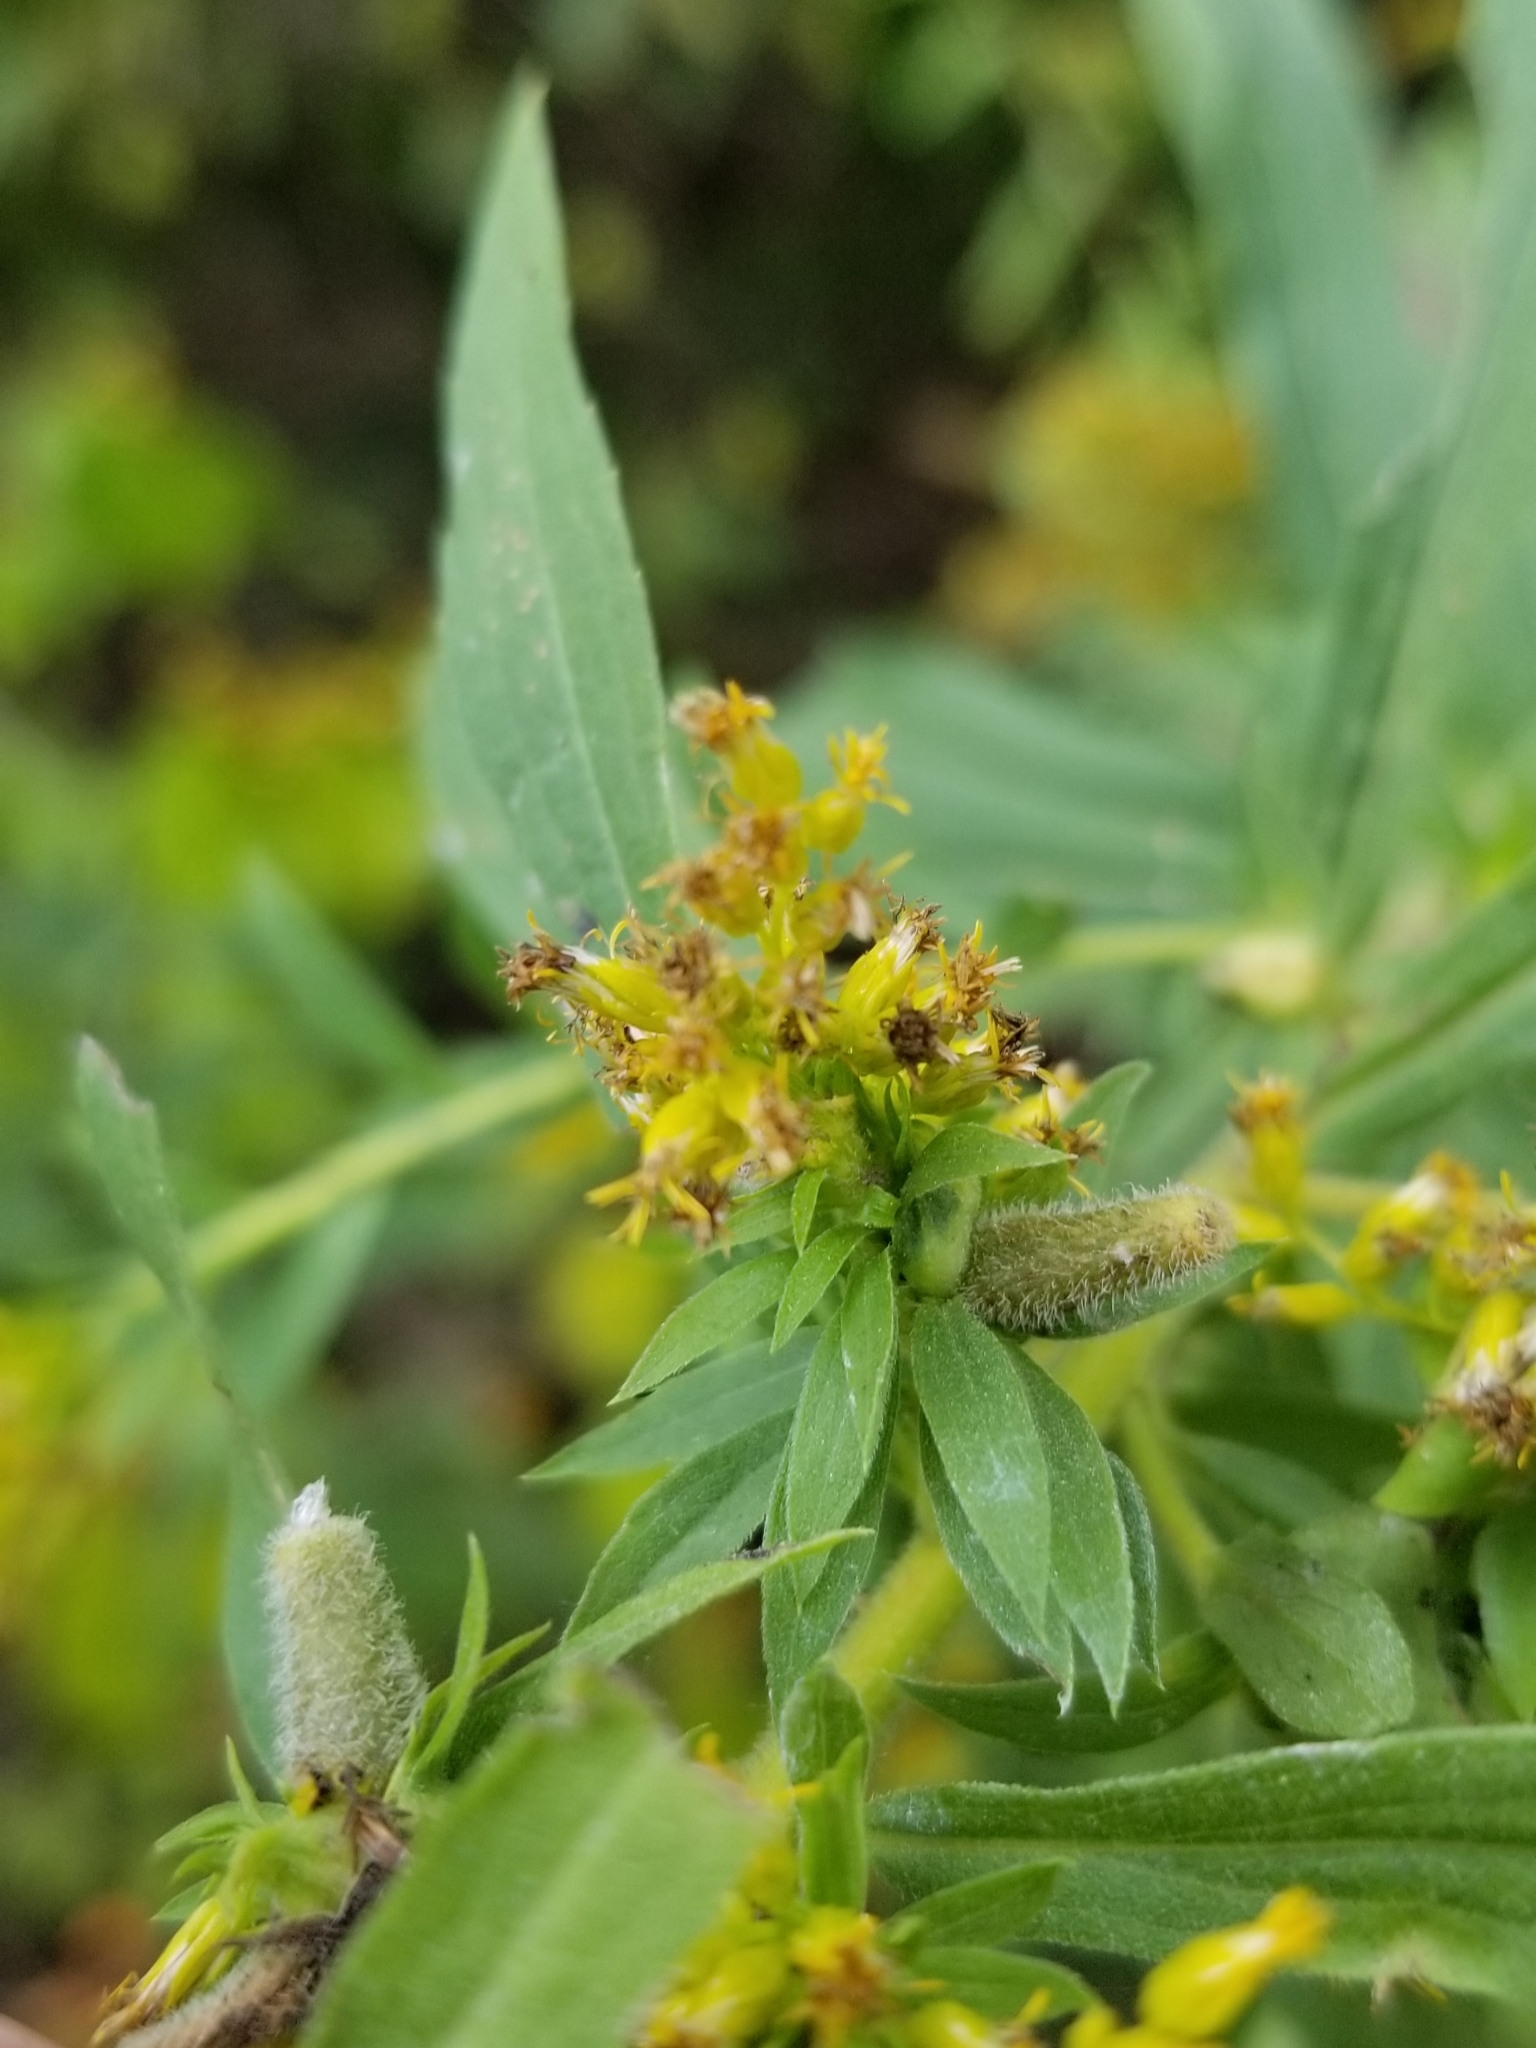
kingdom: Animalia
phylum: Arthropoda
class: Insecta
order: Diptera
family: Cecidomyiidae
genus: Rhopalomyia
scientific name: Rhopalomyia anthophila
